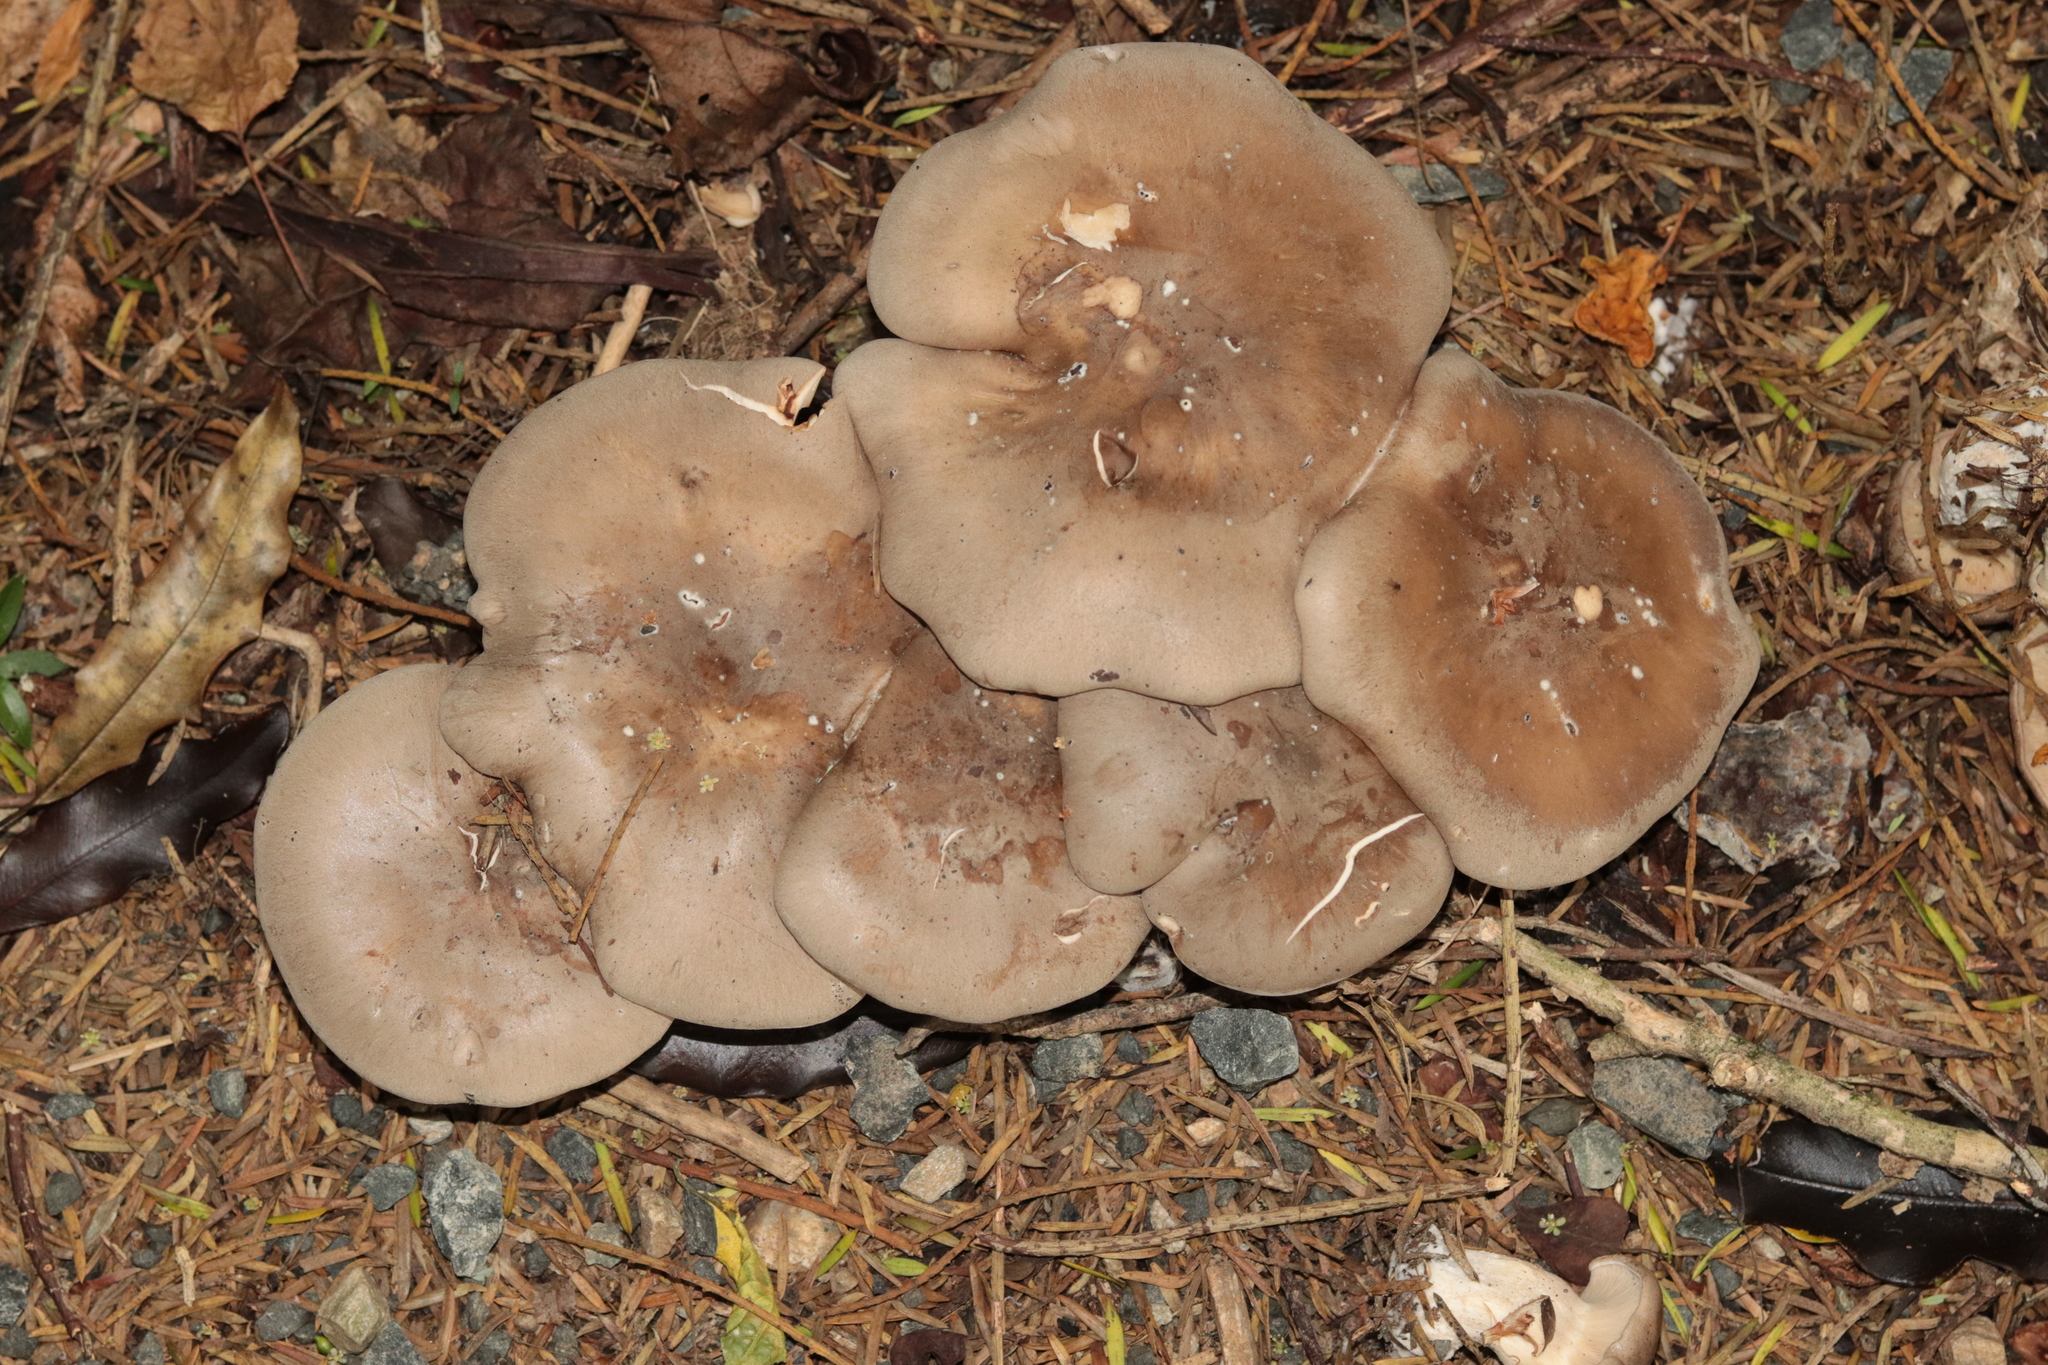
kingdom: Fungi
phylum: Basidiomycota
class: Agaricomycetes
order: Agaricales
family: Tricholomataceae
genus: Lepista
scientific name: Lepista luscina
